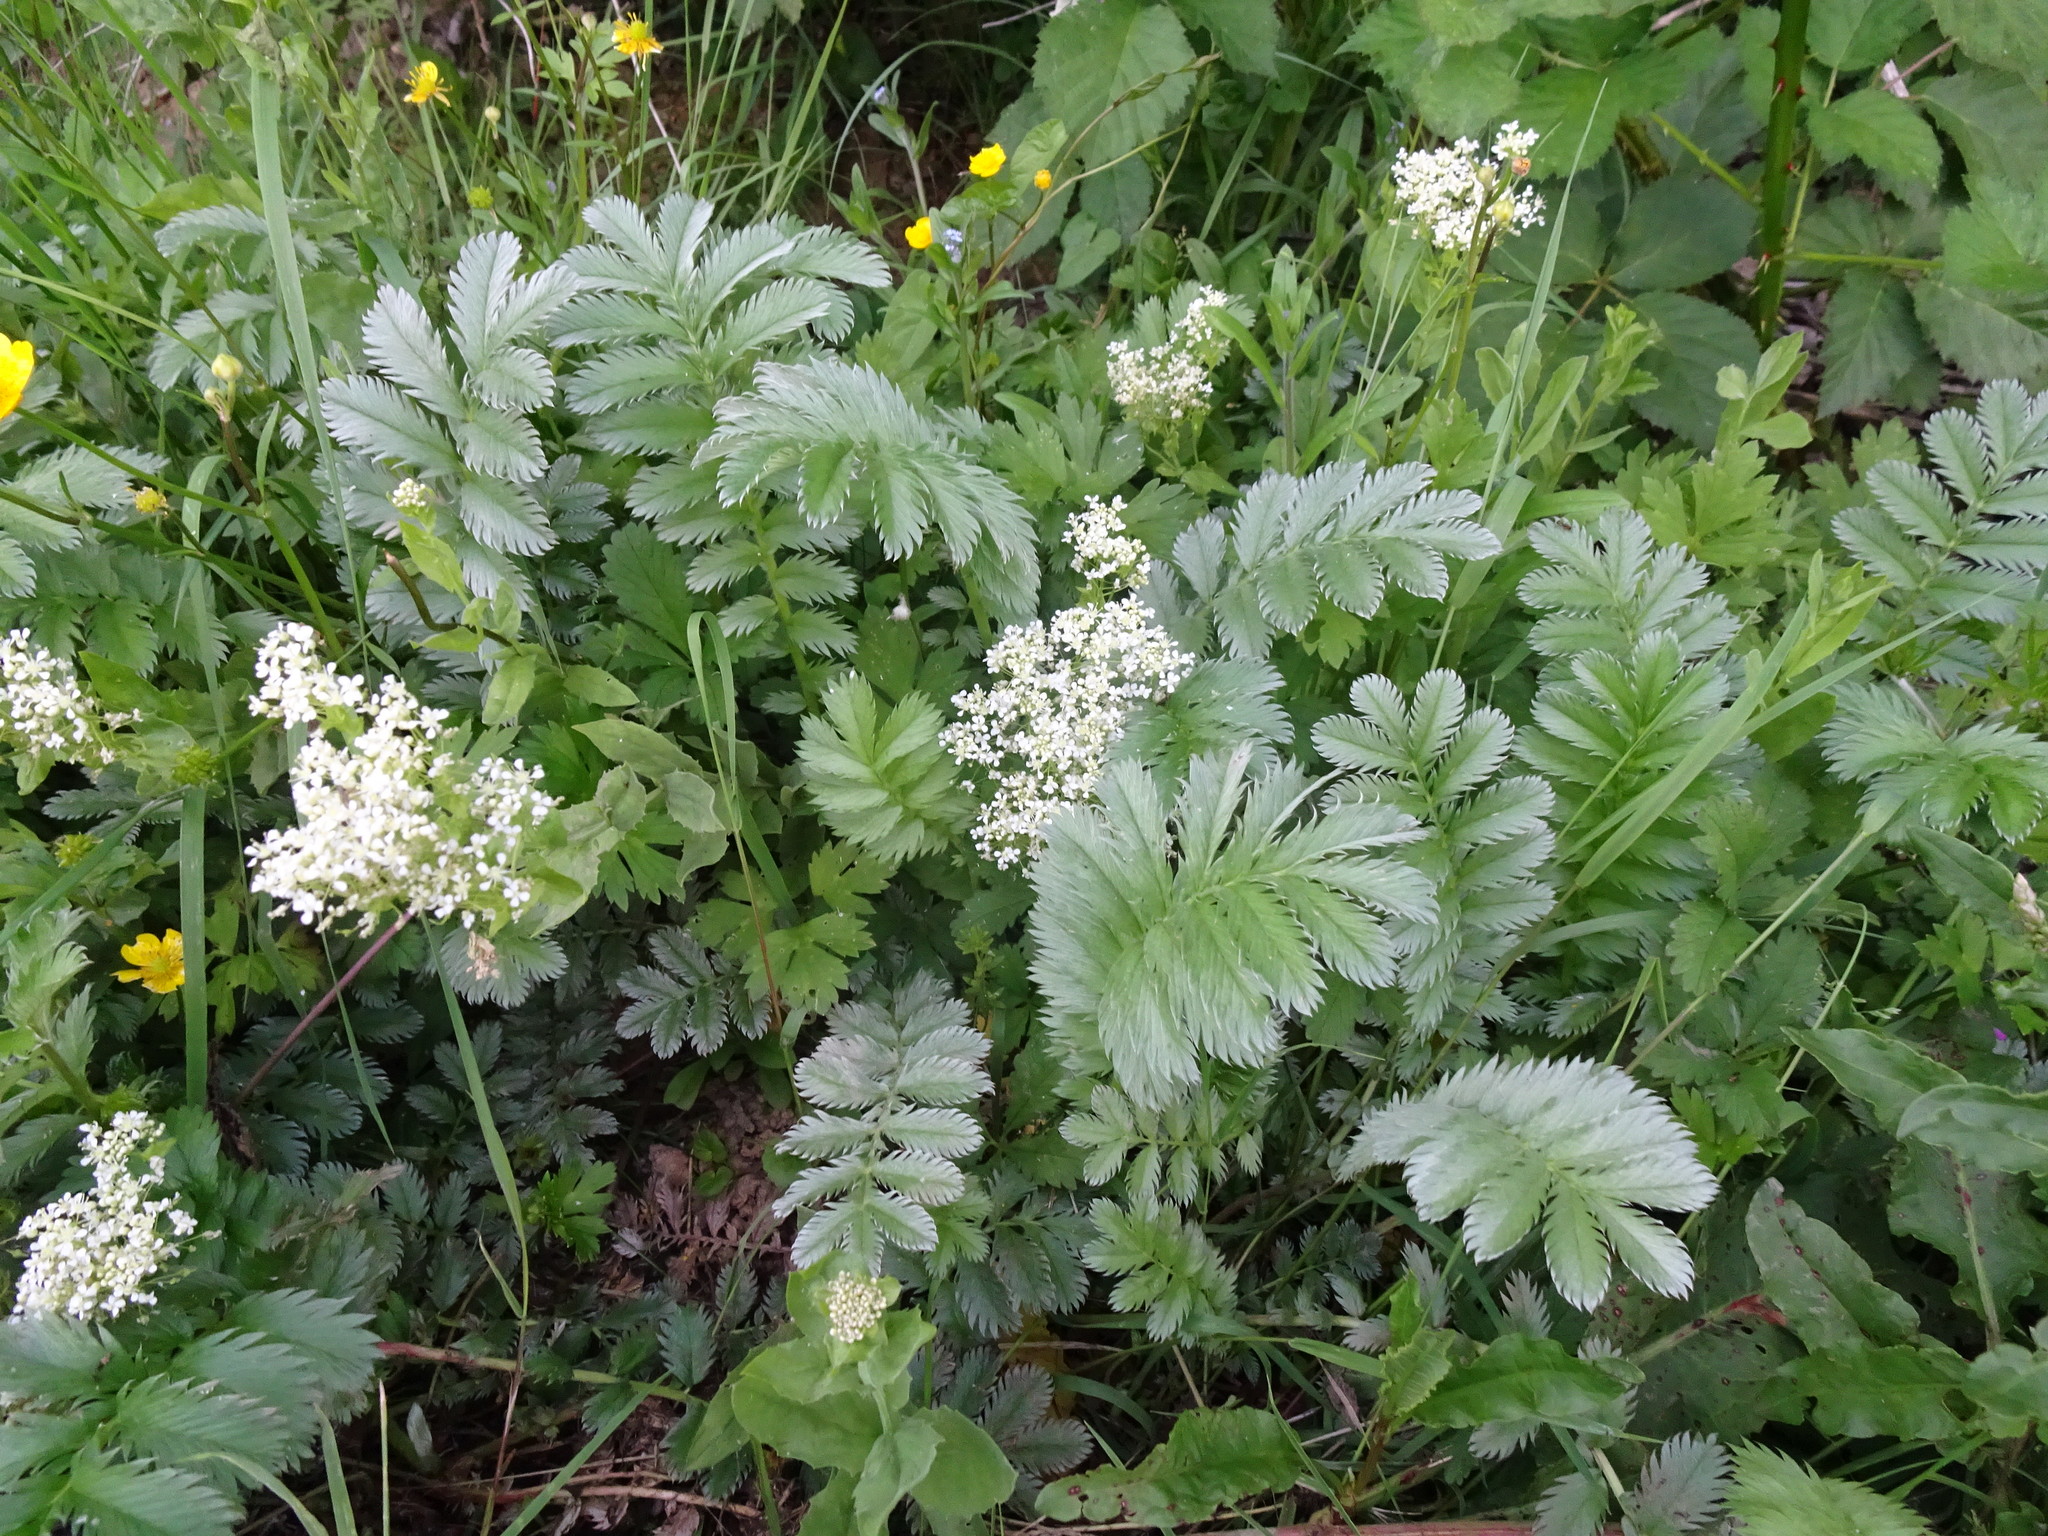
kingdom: Plantae
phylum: Tracheophyta
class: Magnoliopsida
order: Rosales
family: Rosaceae
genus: Argentina
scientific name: Argentina anserina
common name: Common silverweed
